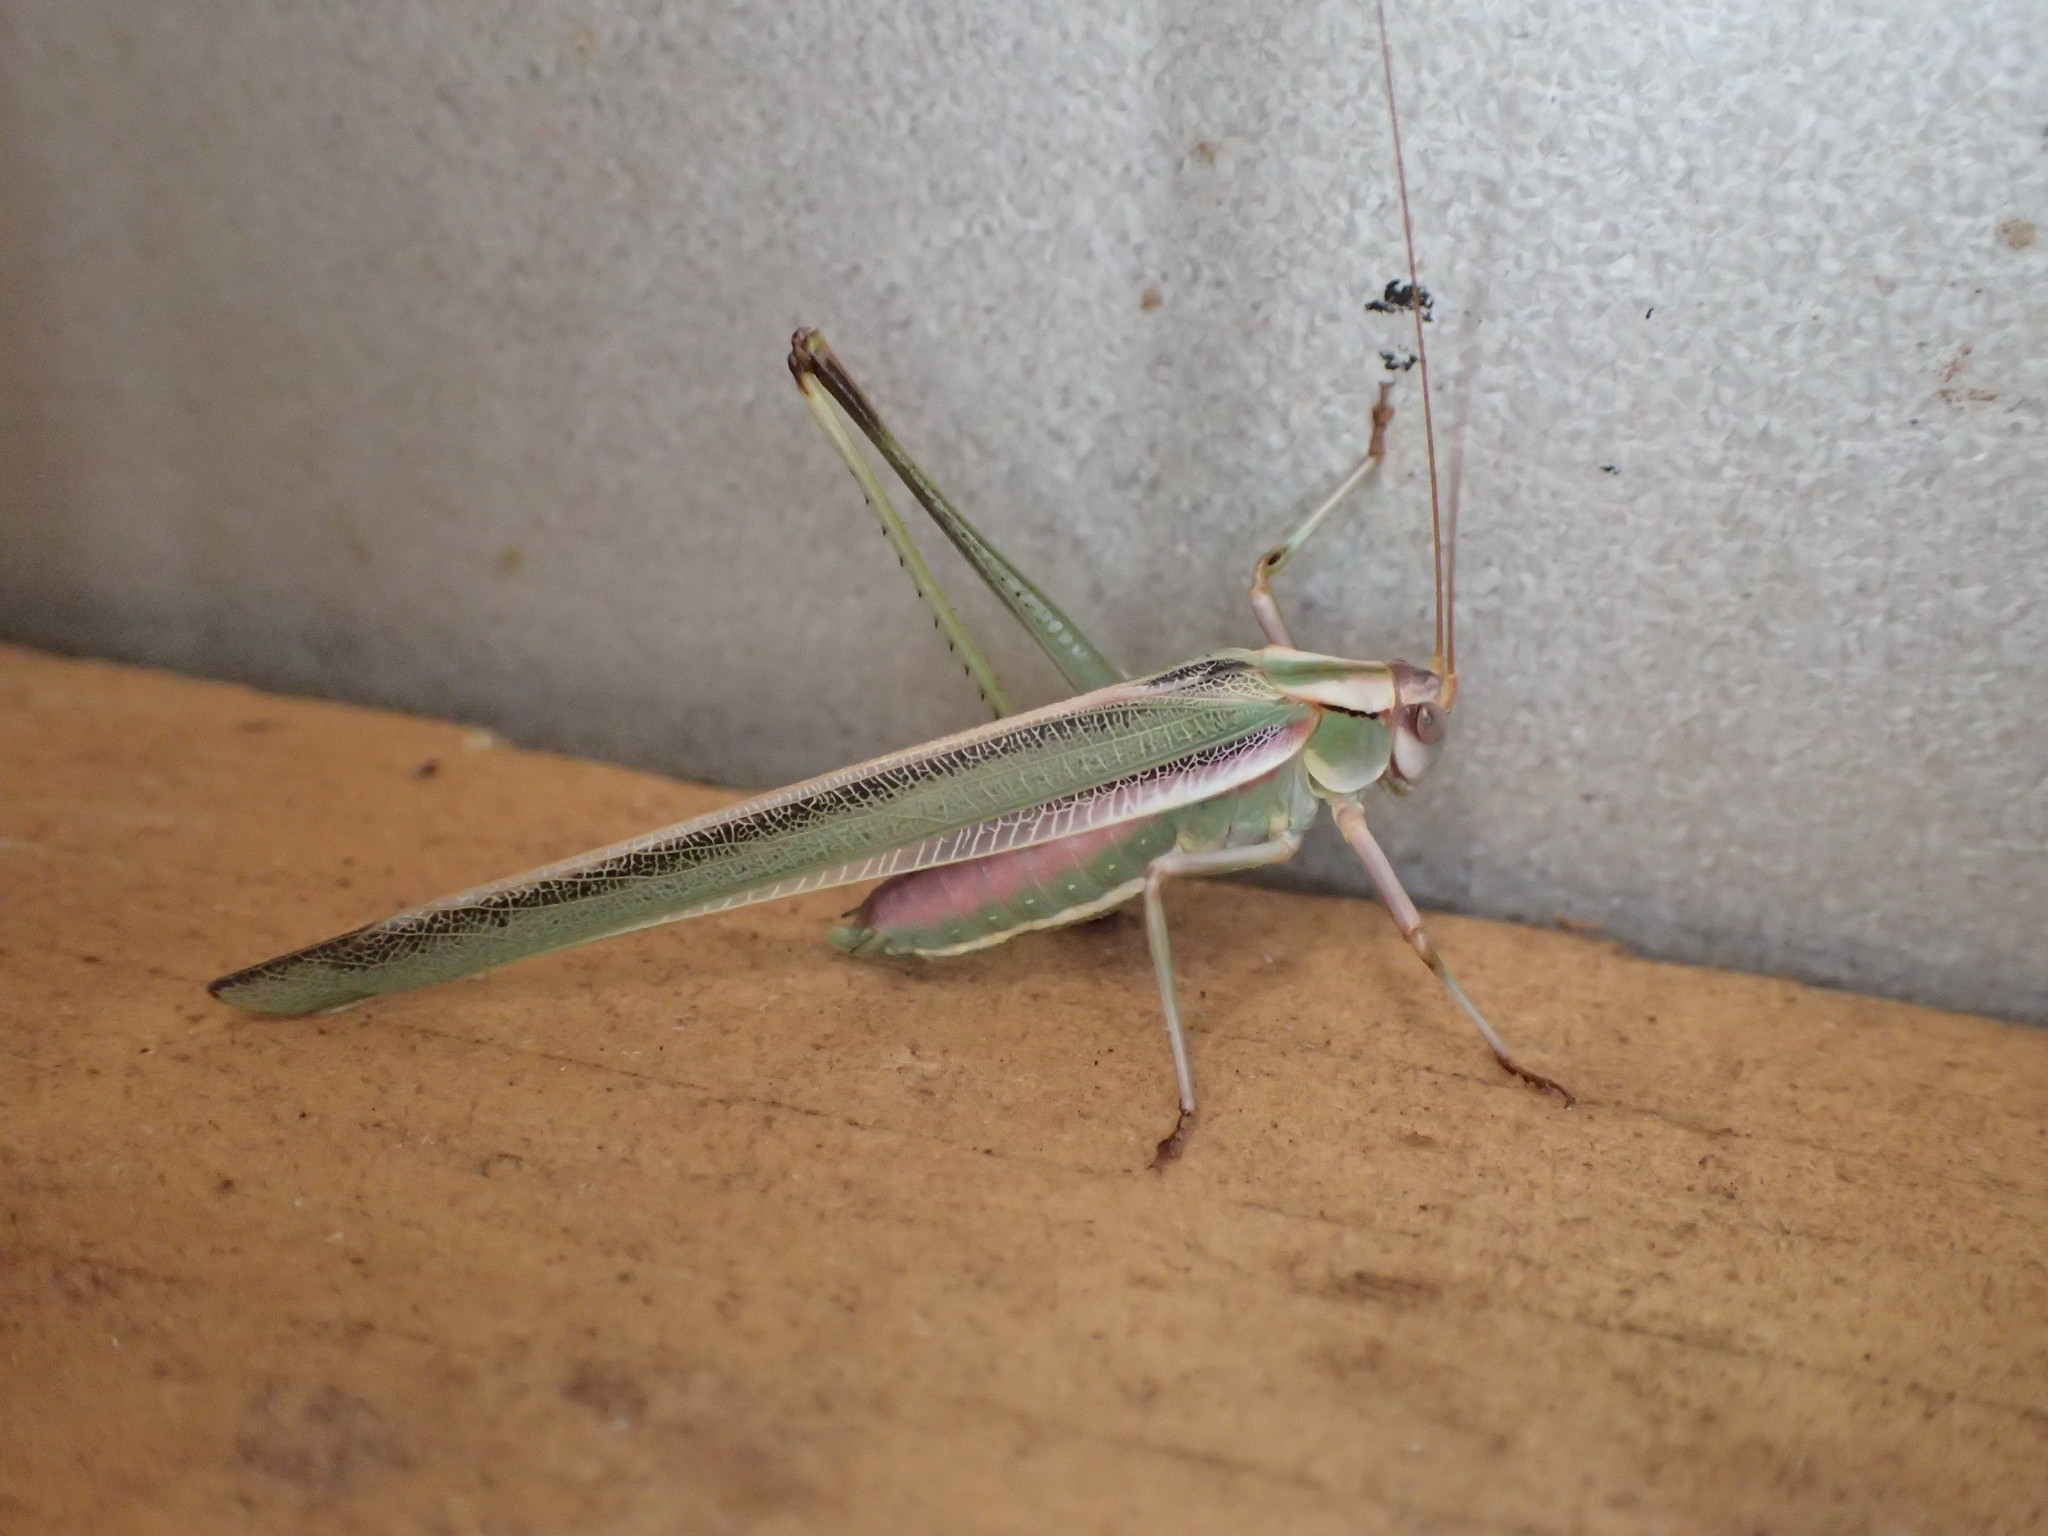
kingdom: Animalia
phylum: Arthropoda
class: Insecta
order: Orthoptera
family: Tettigoniidae
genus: Polichne
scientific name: Polichne argentata
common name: Striped polichne
